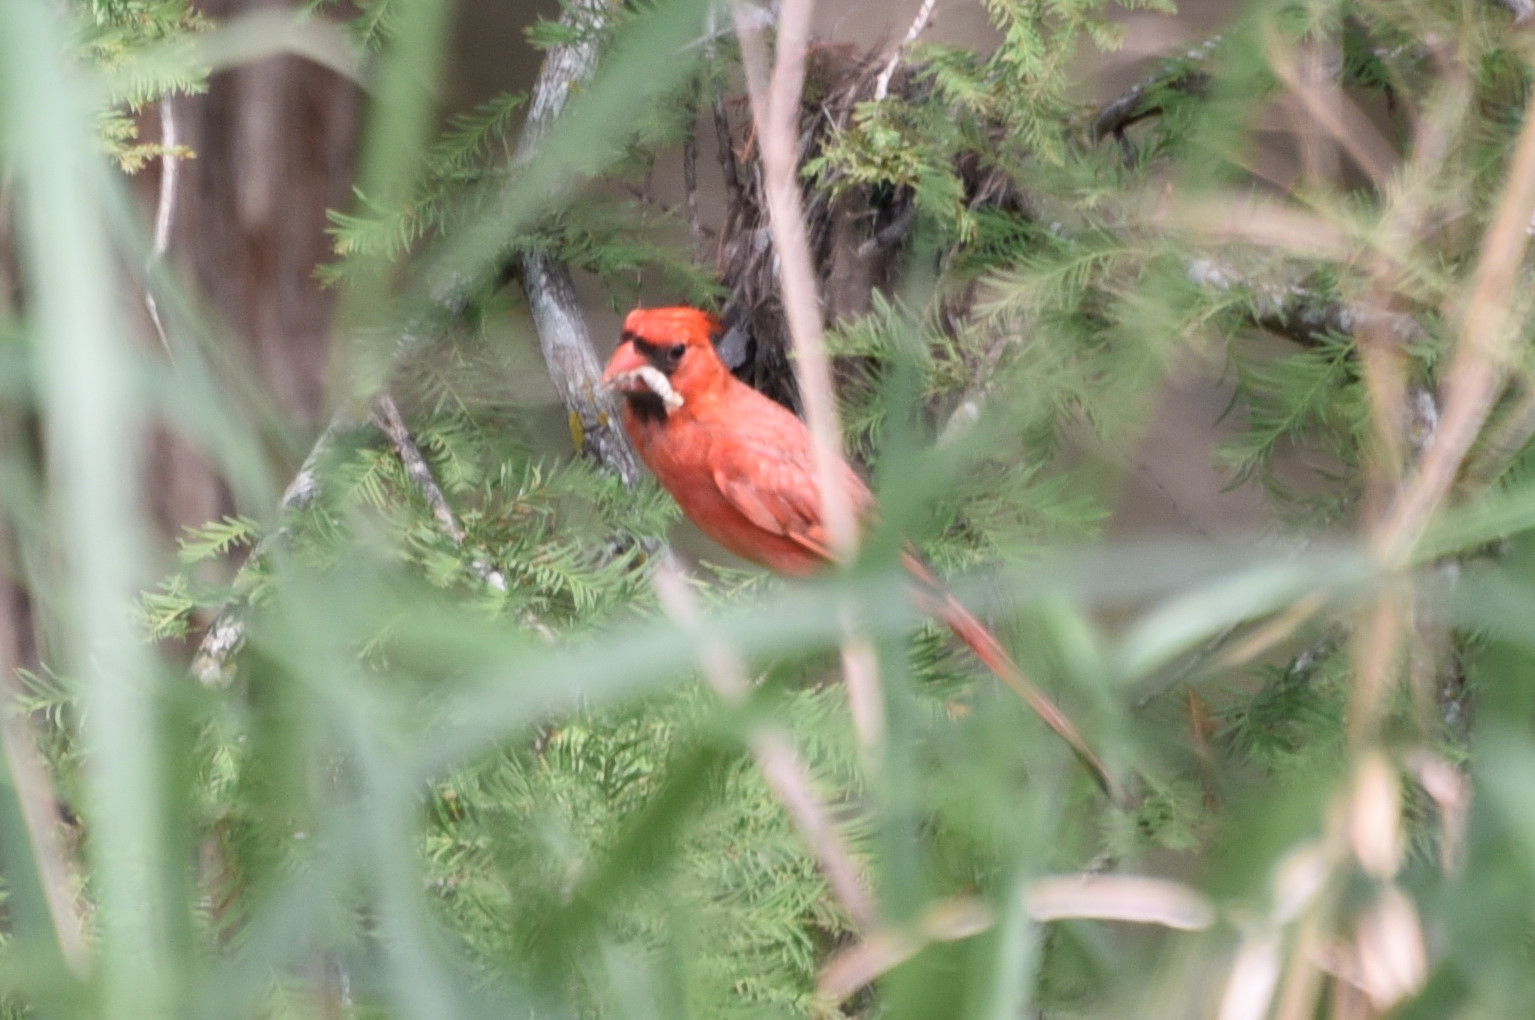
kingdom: Animalia
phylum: Chordata
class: Aves
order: Passeriformes
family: Cardinalidae
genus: Cardinalis
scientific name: Cardinalis cardinalis
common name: Northern cardinal
